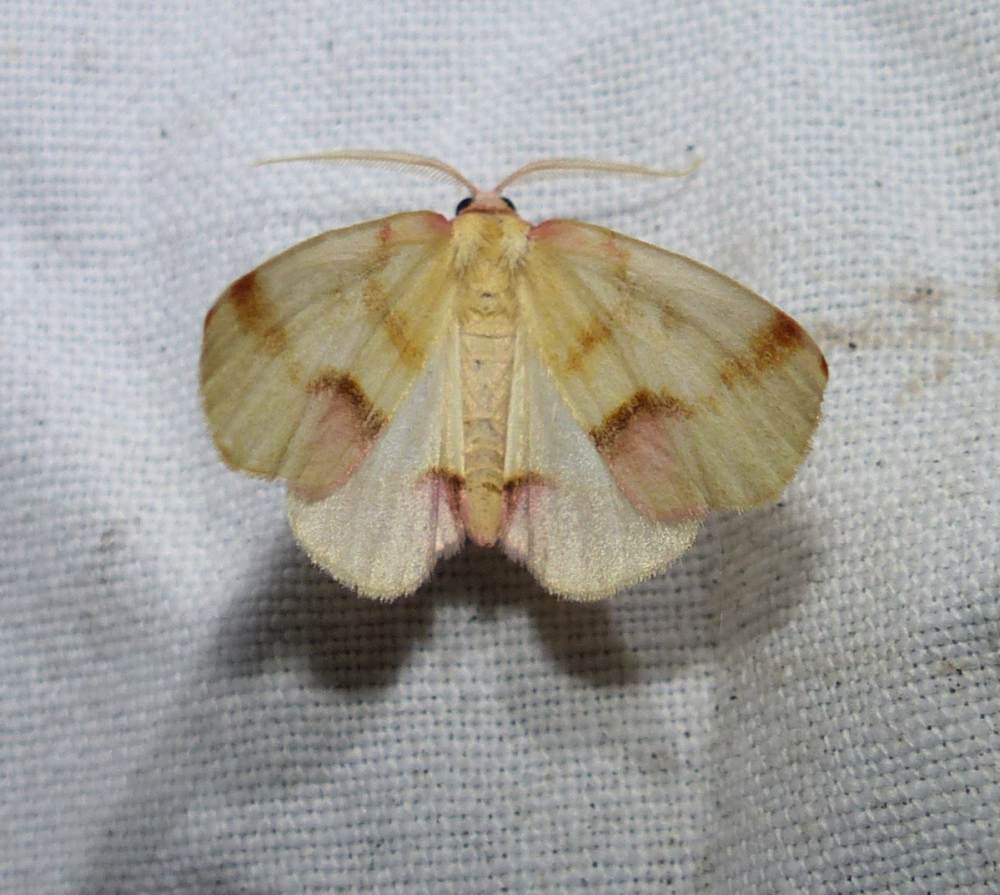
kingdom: Animalia
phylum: Arthropoda
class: Insecta
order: Lepidoptera
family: Geometridae
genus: Plagodis
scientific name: Plagodis serinaria
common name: Lemon plagodis
